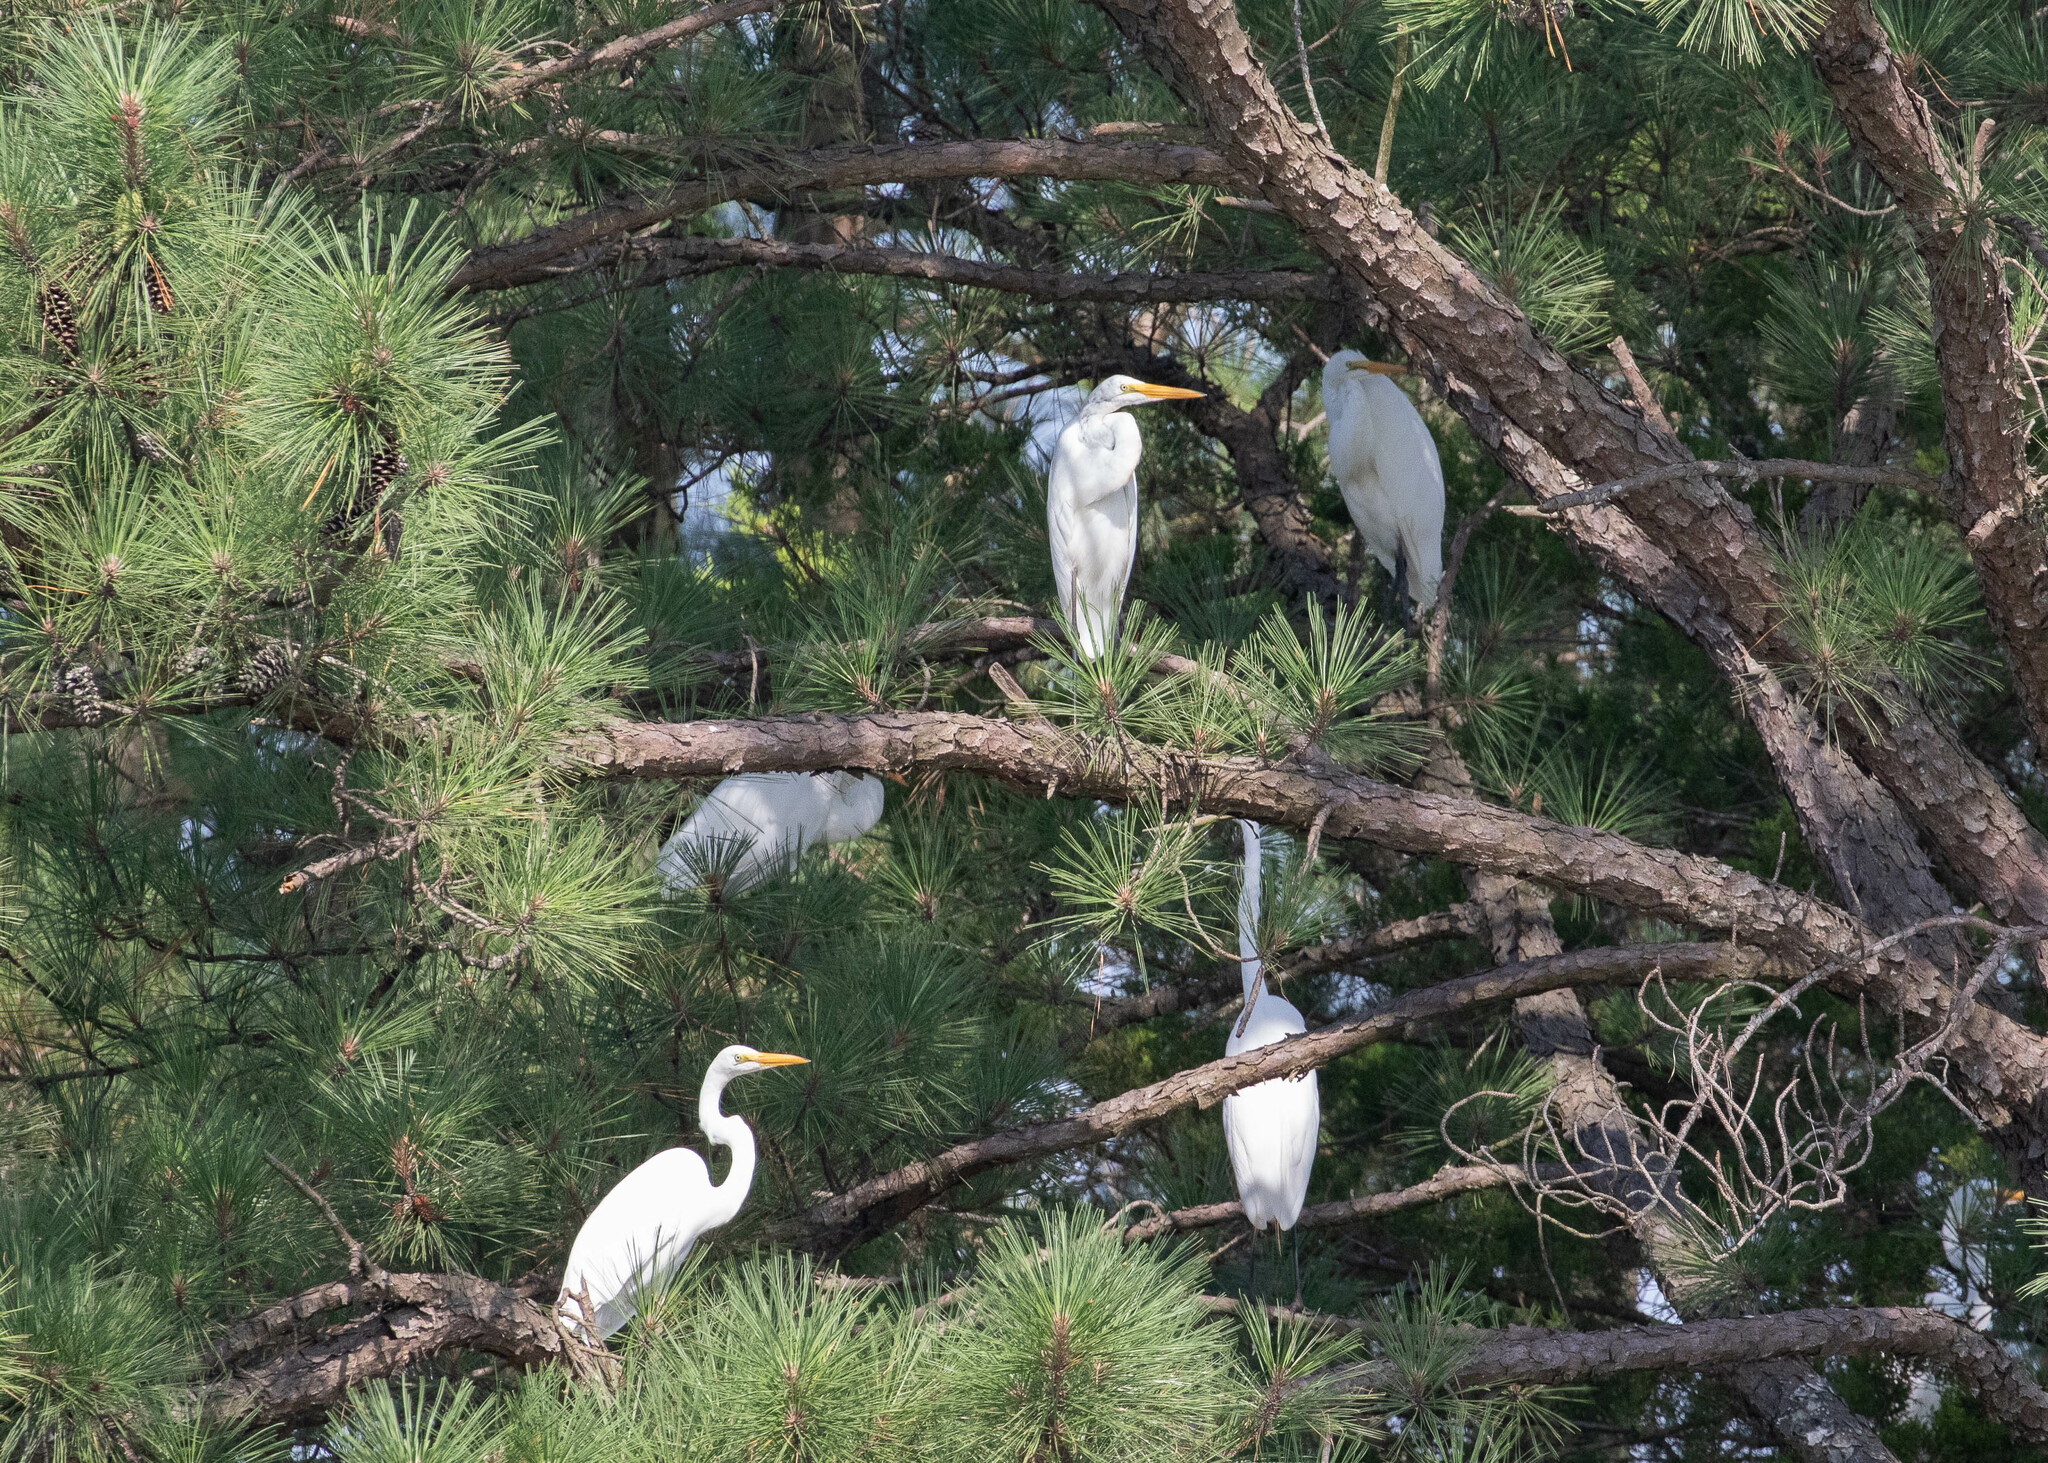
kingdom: Animalia
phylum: Chordata
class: Aves
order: Pelecaniformes
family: Ardeidae
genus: Ardea
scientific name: Ardea alba
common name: Great egret
